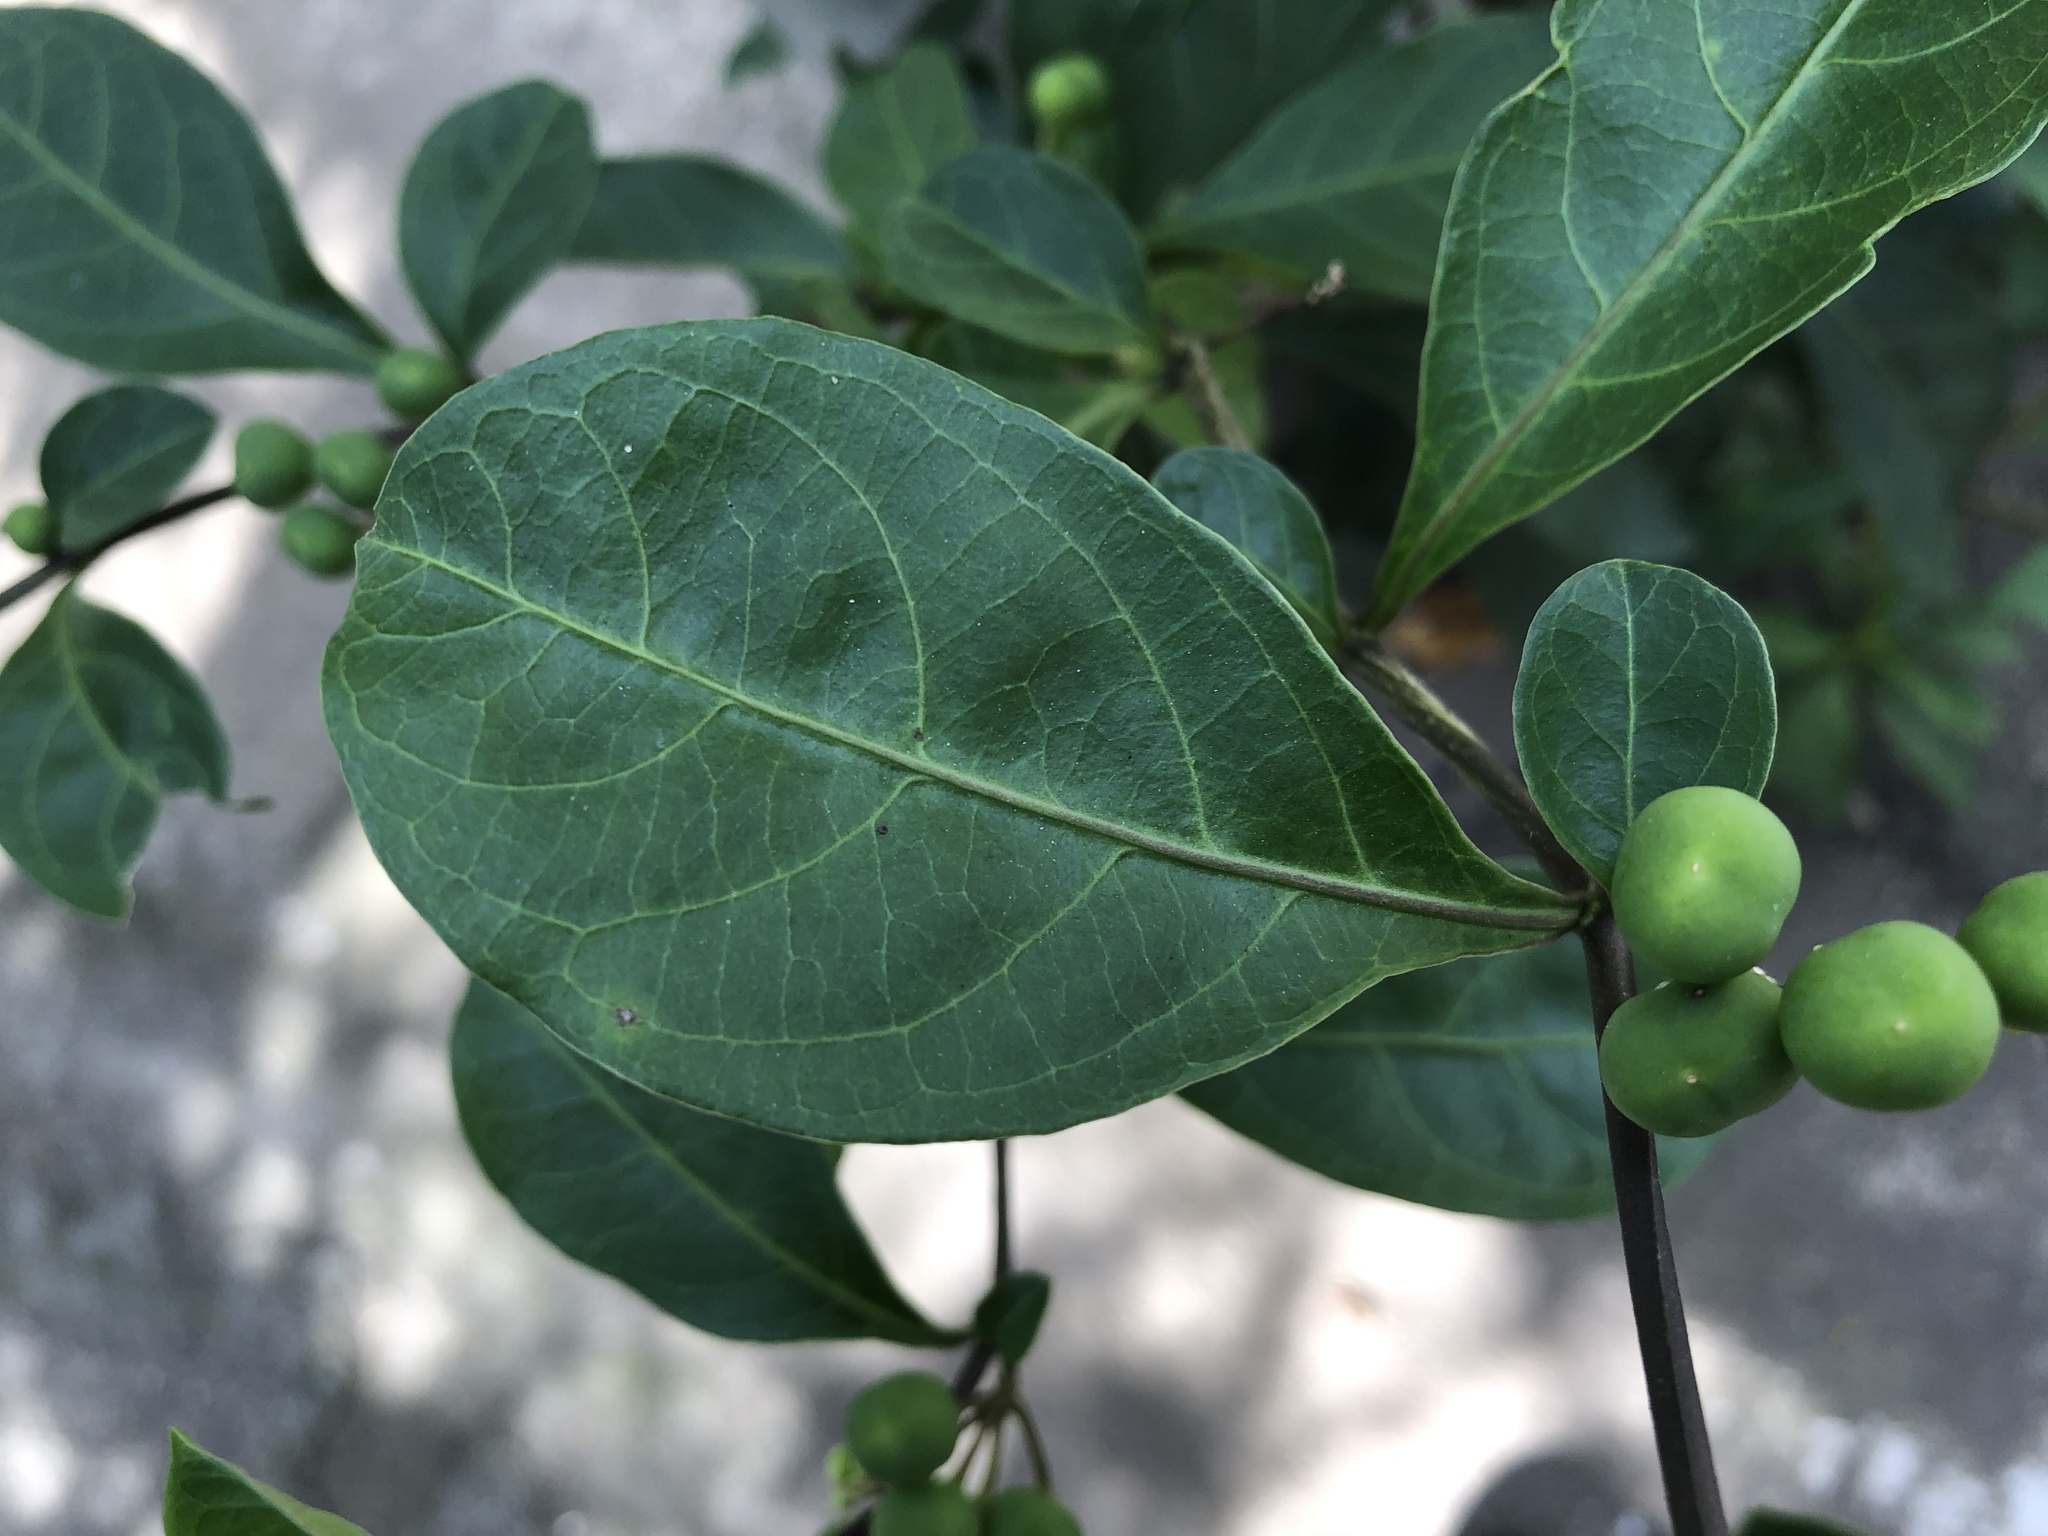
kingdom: Plantae
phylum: Tracheophyta
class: Magnoliopsida
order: Solanales
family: Solanaceae
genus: Solanum
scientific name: Solanum diphyllum
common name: Twoleaf nightshade
